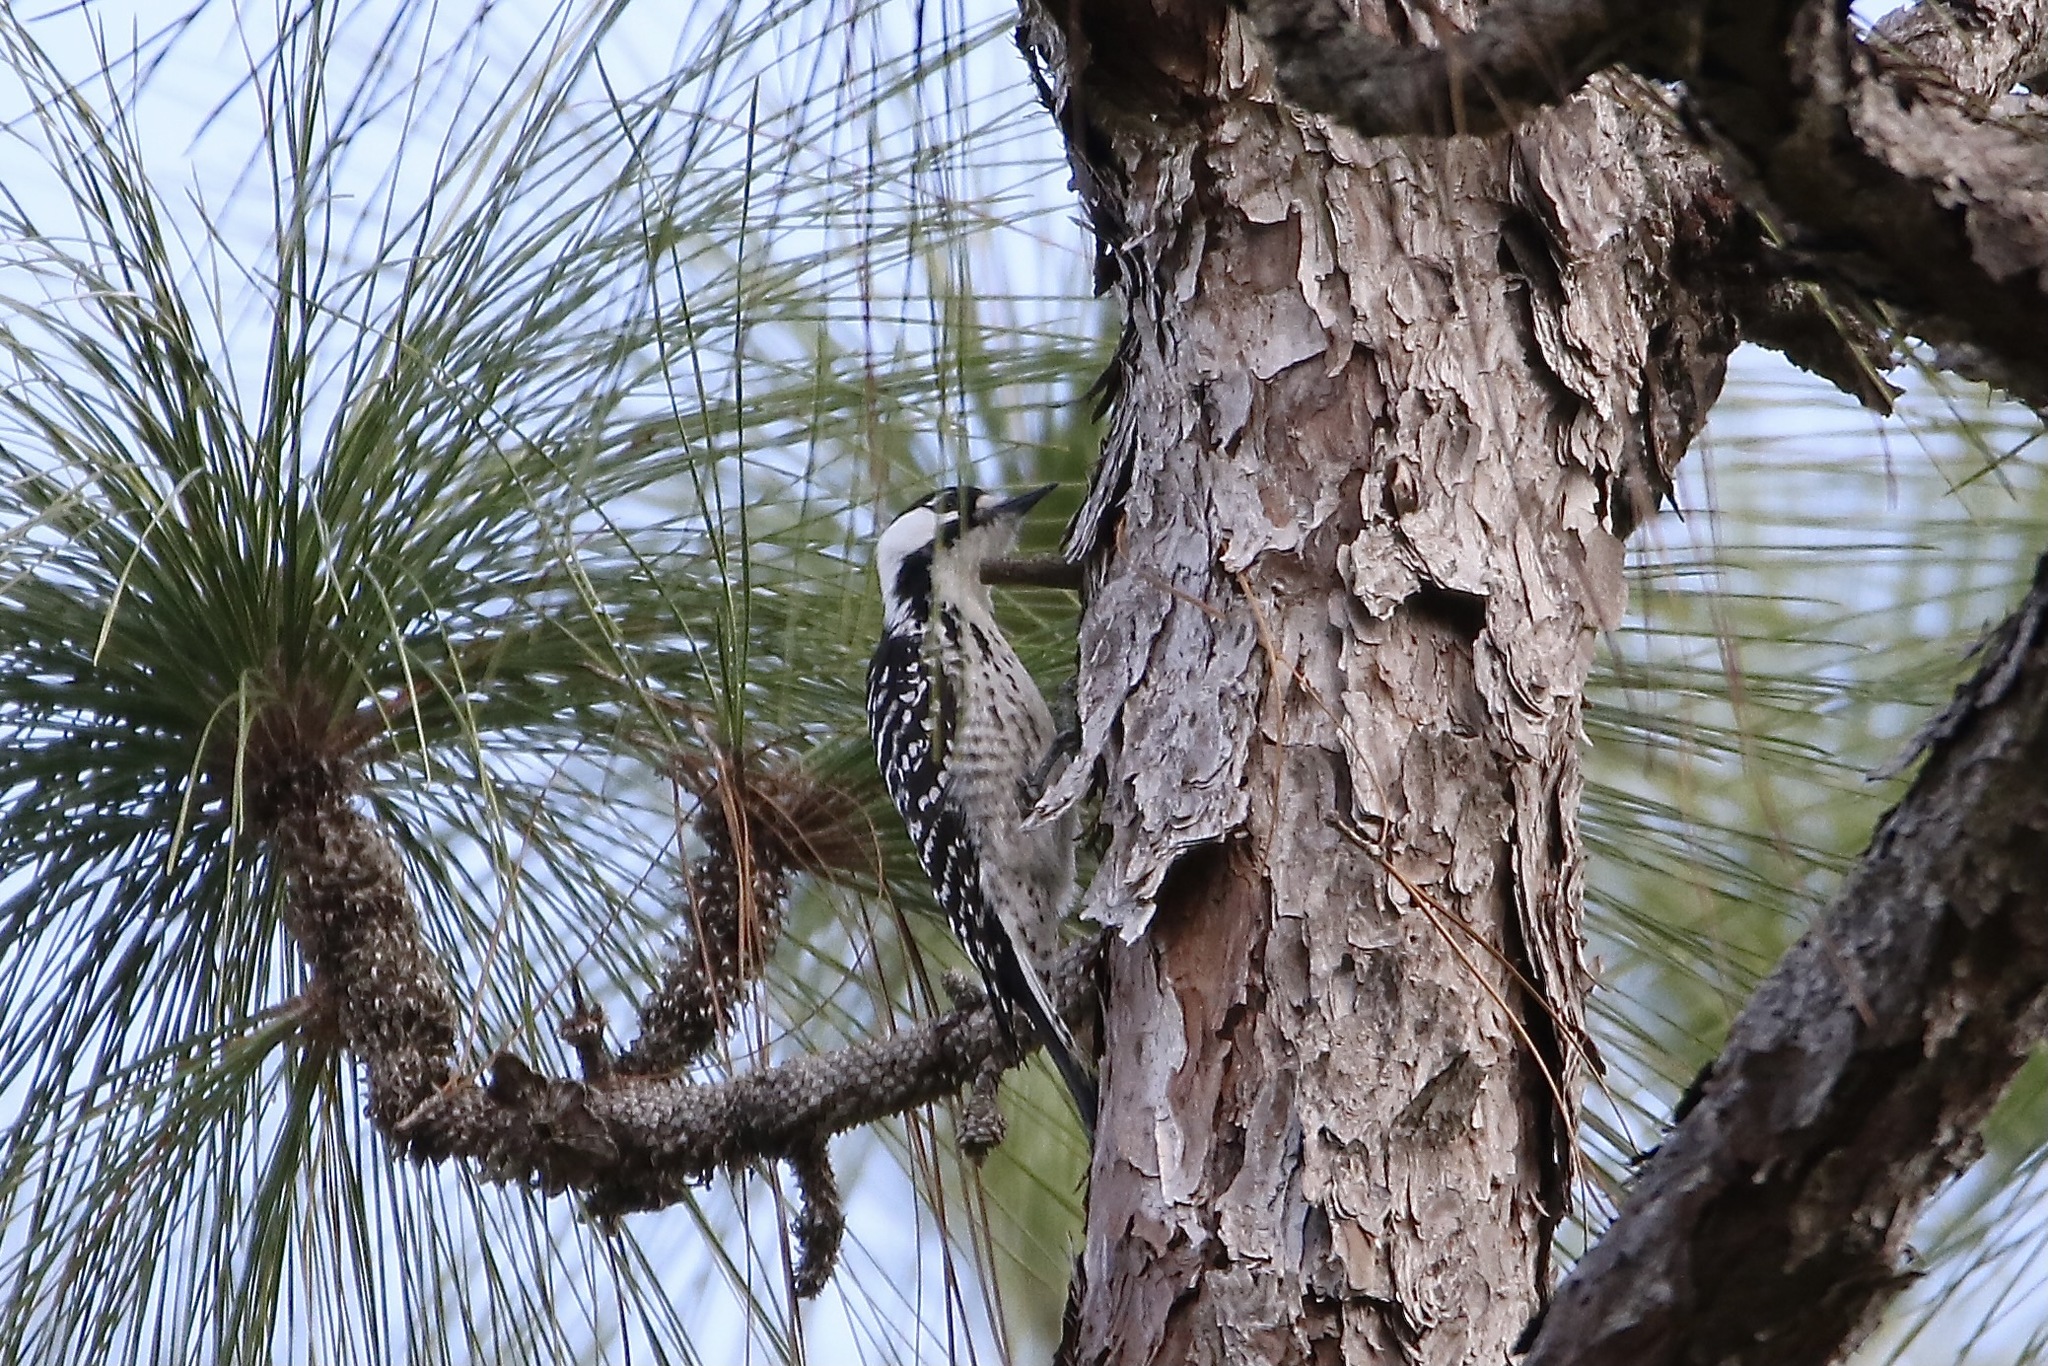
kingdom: Animalia
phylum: Chordata
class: Aves
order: Passeriformes
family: Vireonidae
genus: Vireo
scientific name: Vireo solitarius
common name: Blue-headed vireo
